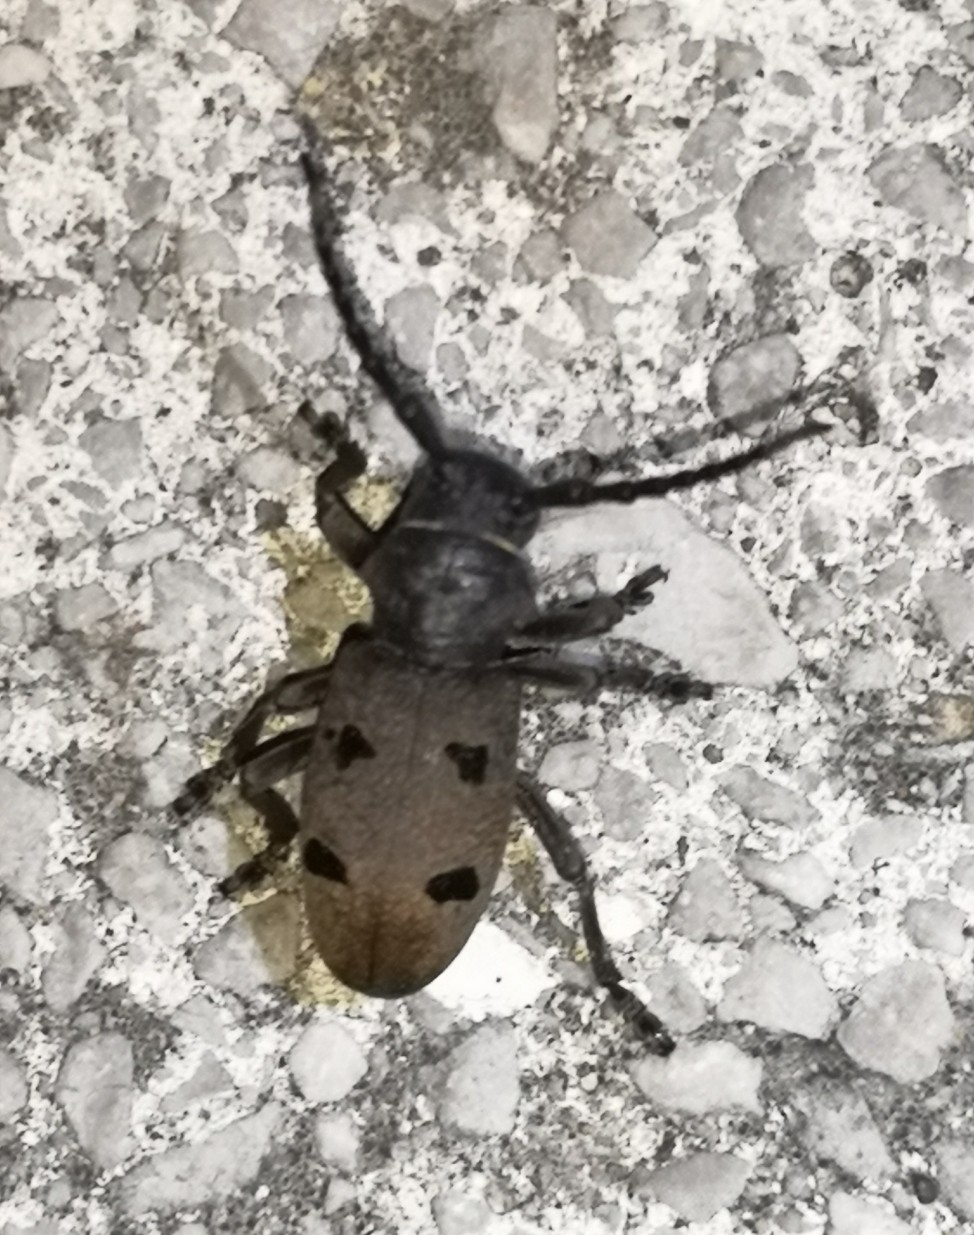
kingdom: Animalia
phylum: Arthropoda
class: Insecta
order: Coleoptera
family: Cerambycidae
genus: Herophila
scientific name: Herophila tristis
